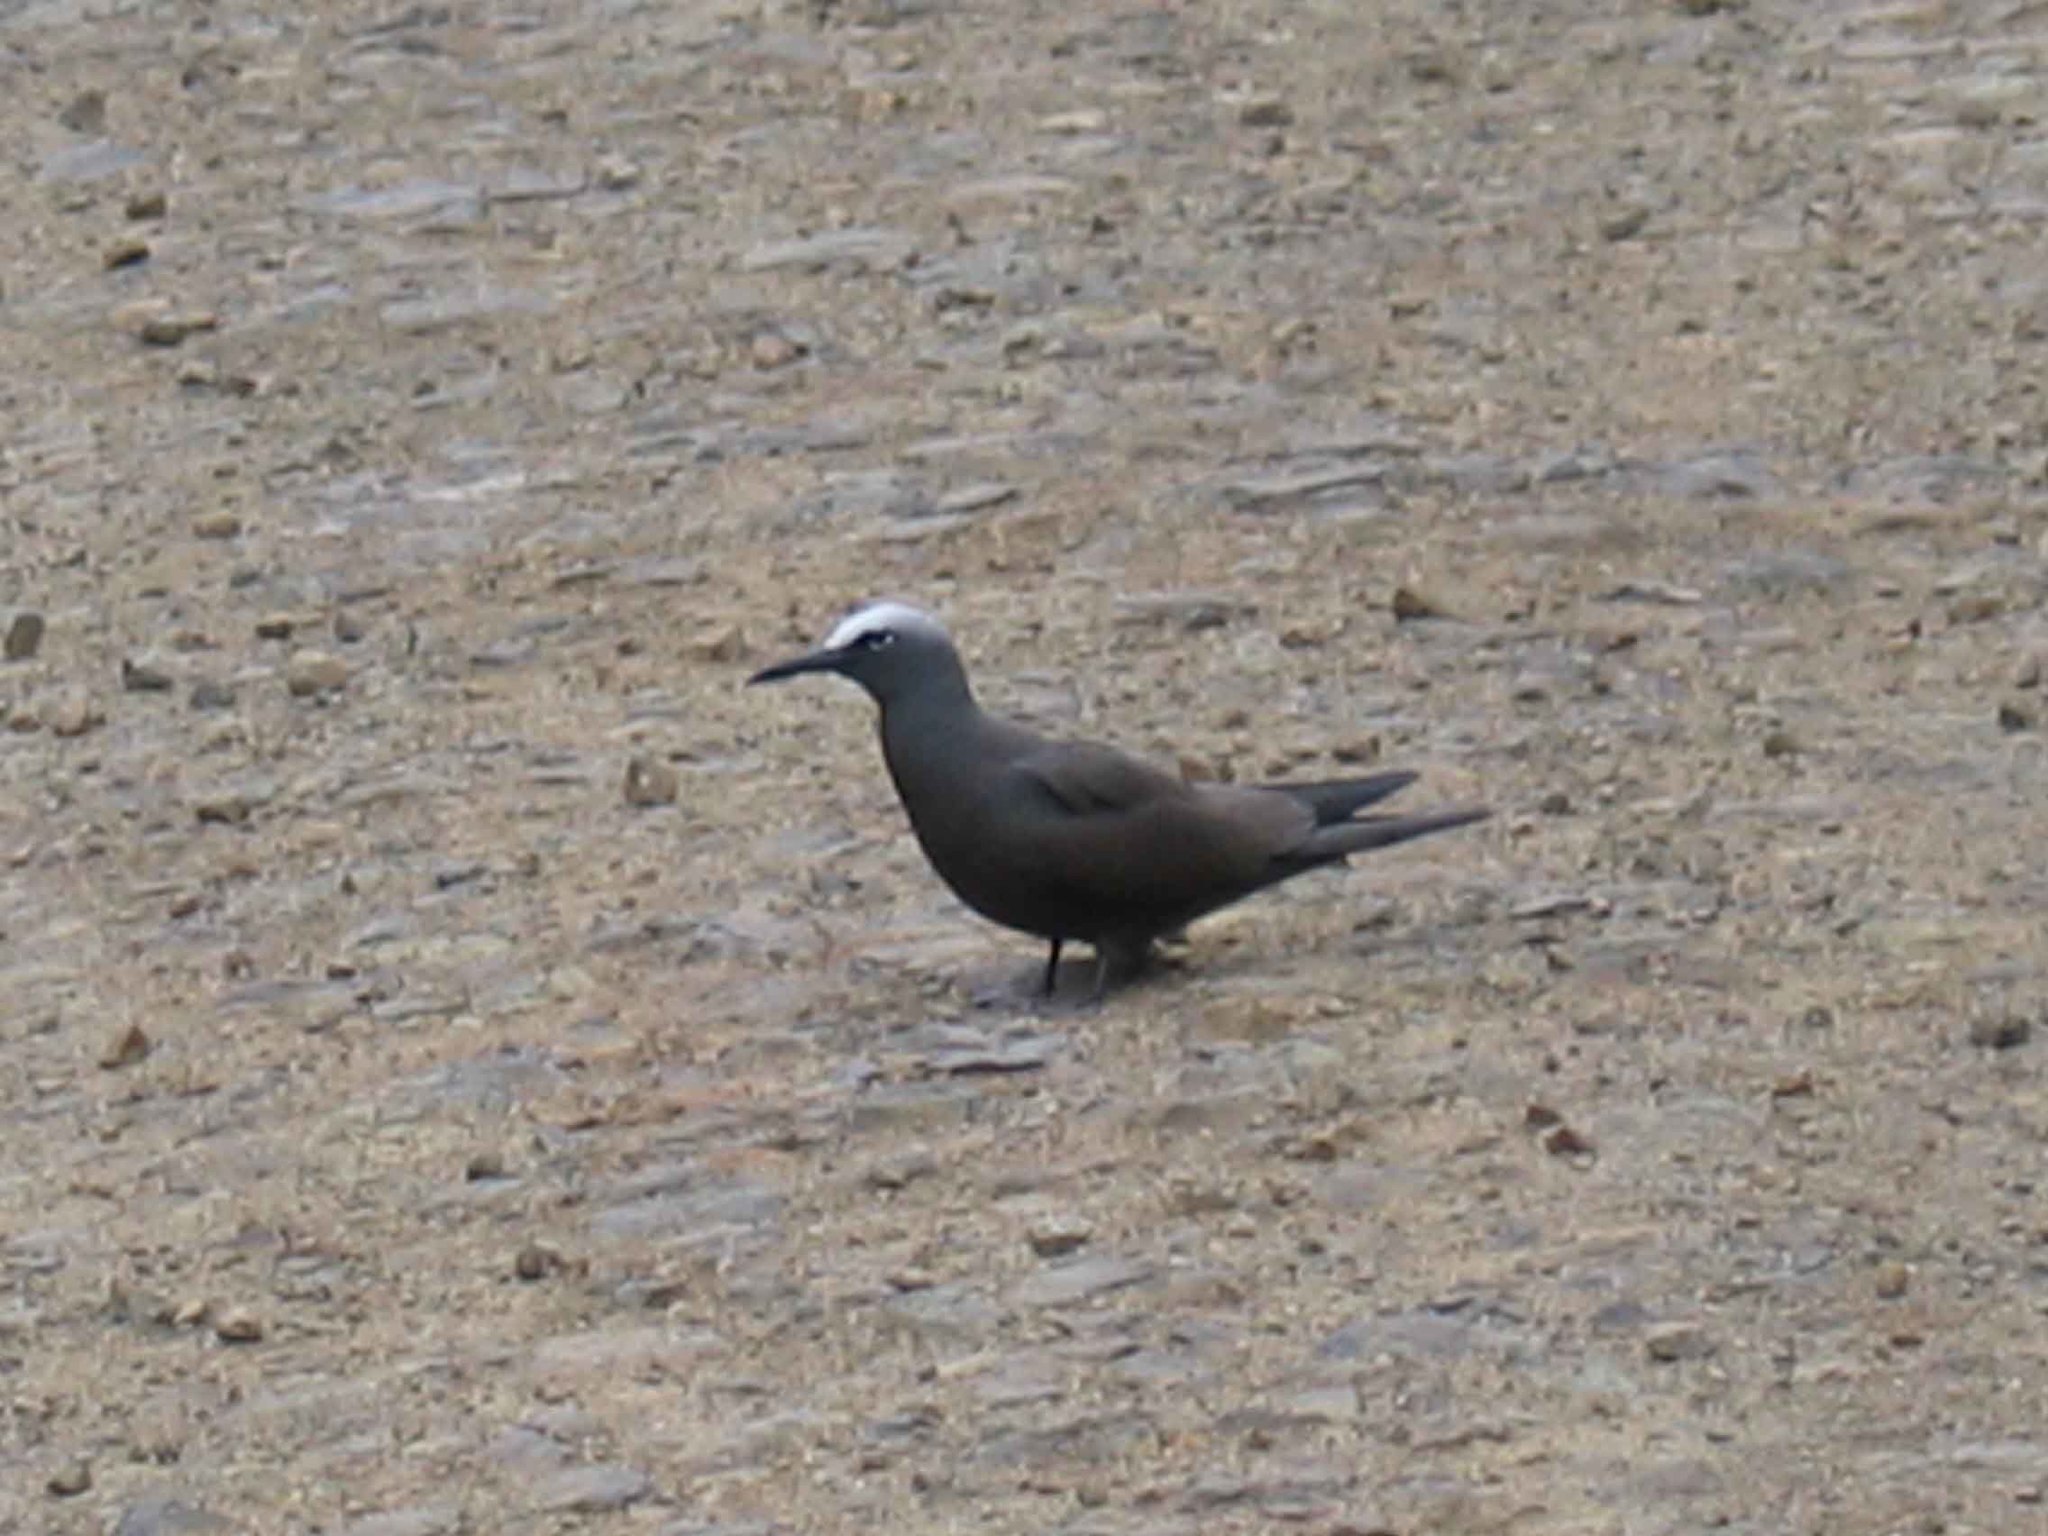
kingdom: Animalia
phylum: Chordata
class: Aves
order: Charadriiformes
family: Laridae
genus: Anous
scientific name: Anous stolidus
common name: Brown noddy
